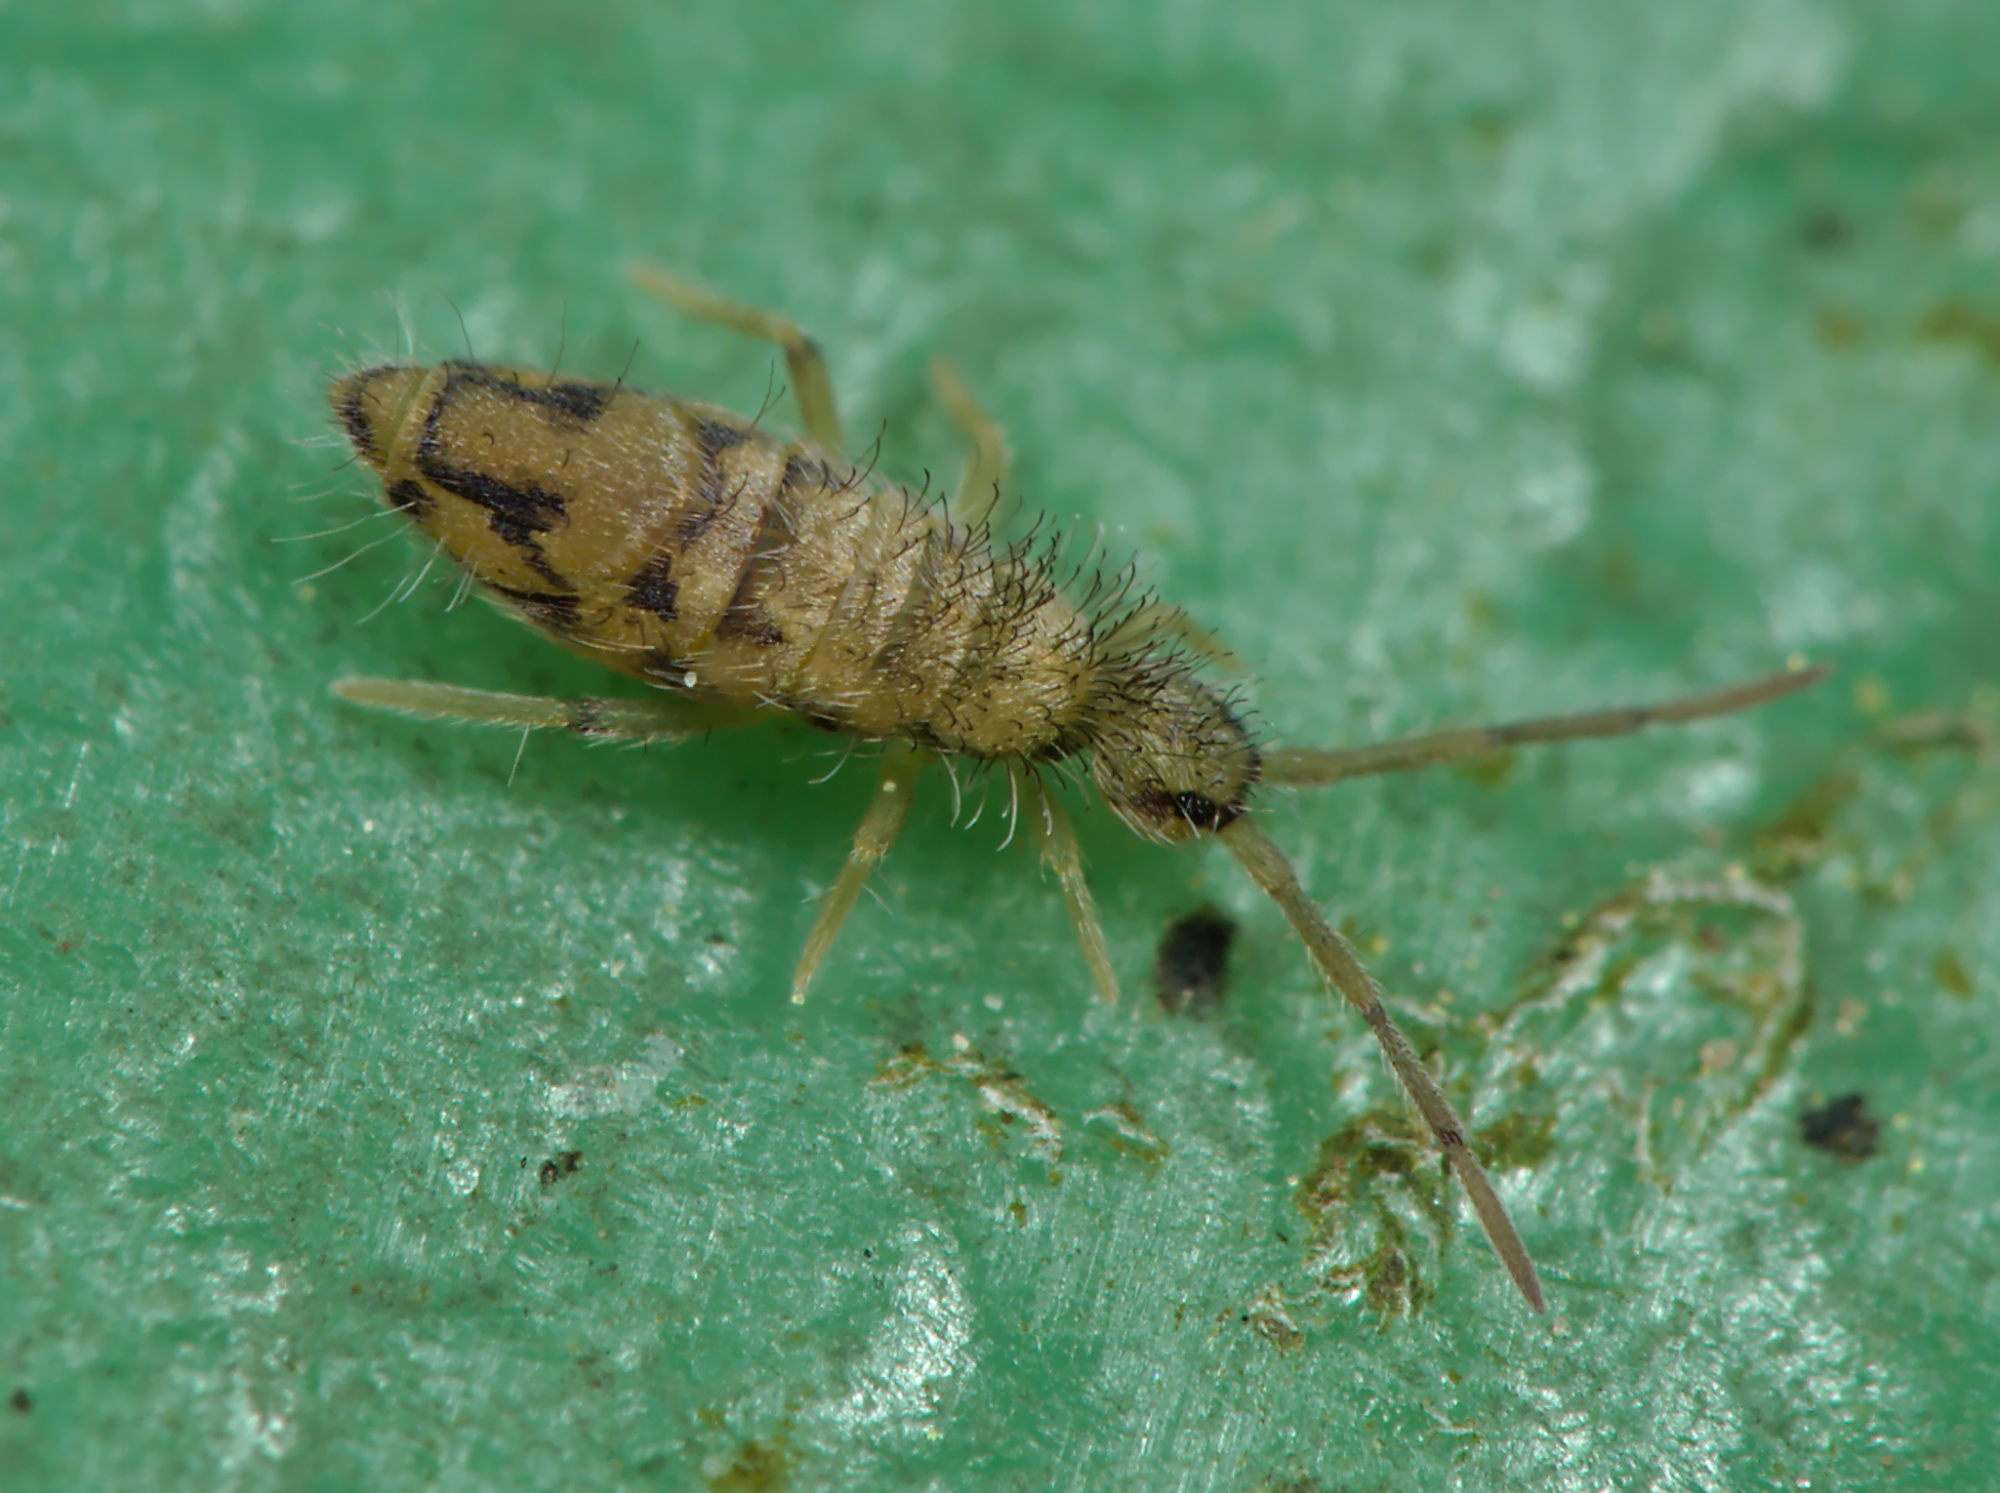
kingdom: Animalia
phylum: Arthropoda
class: Collembola
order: Entomobryomorpha
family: Entomobryidae
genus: Entomobrya
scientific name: Entomobrya nivalis
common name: Cosmopolitan springtail
